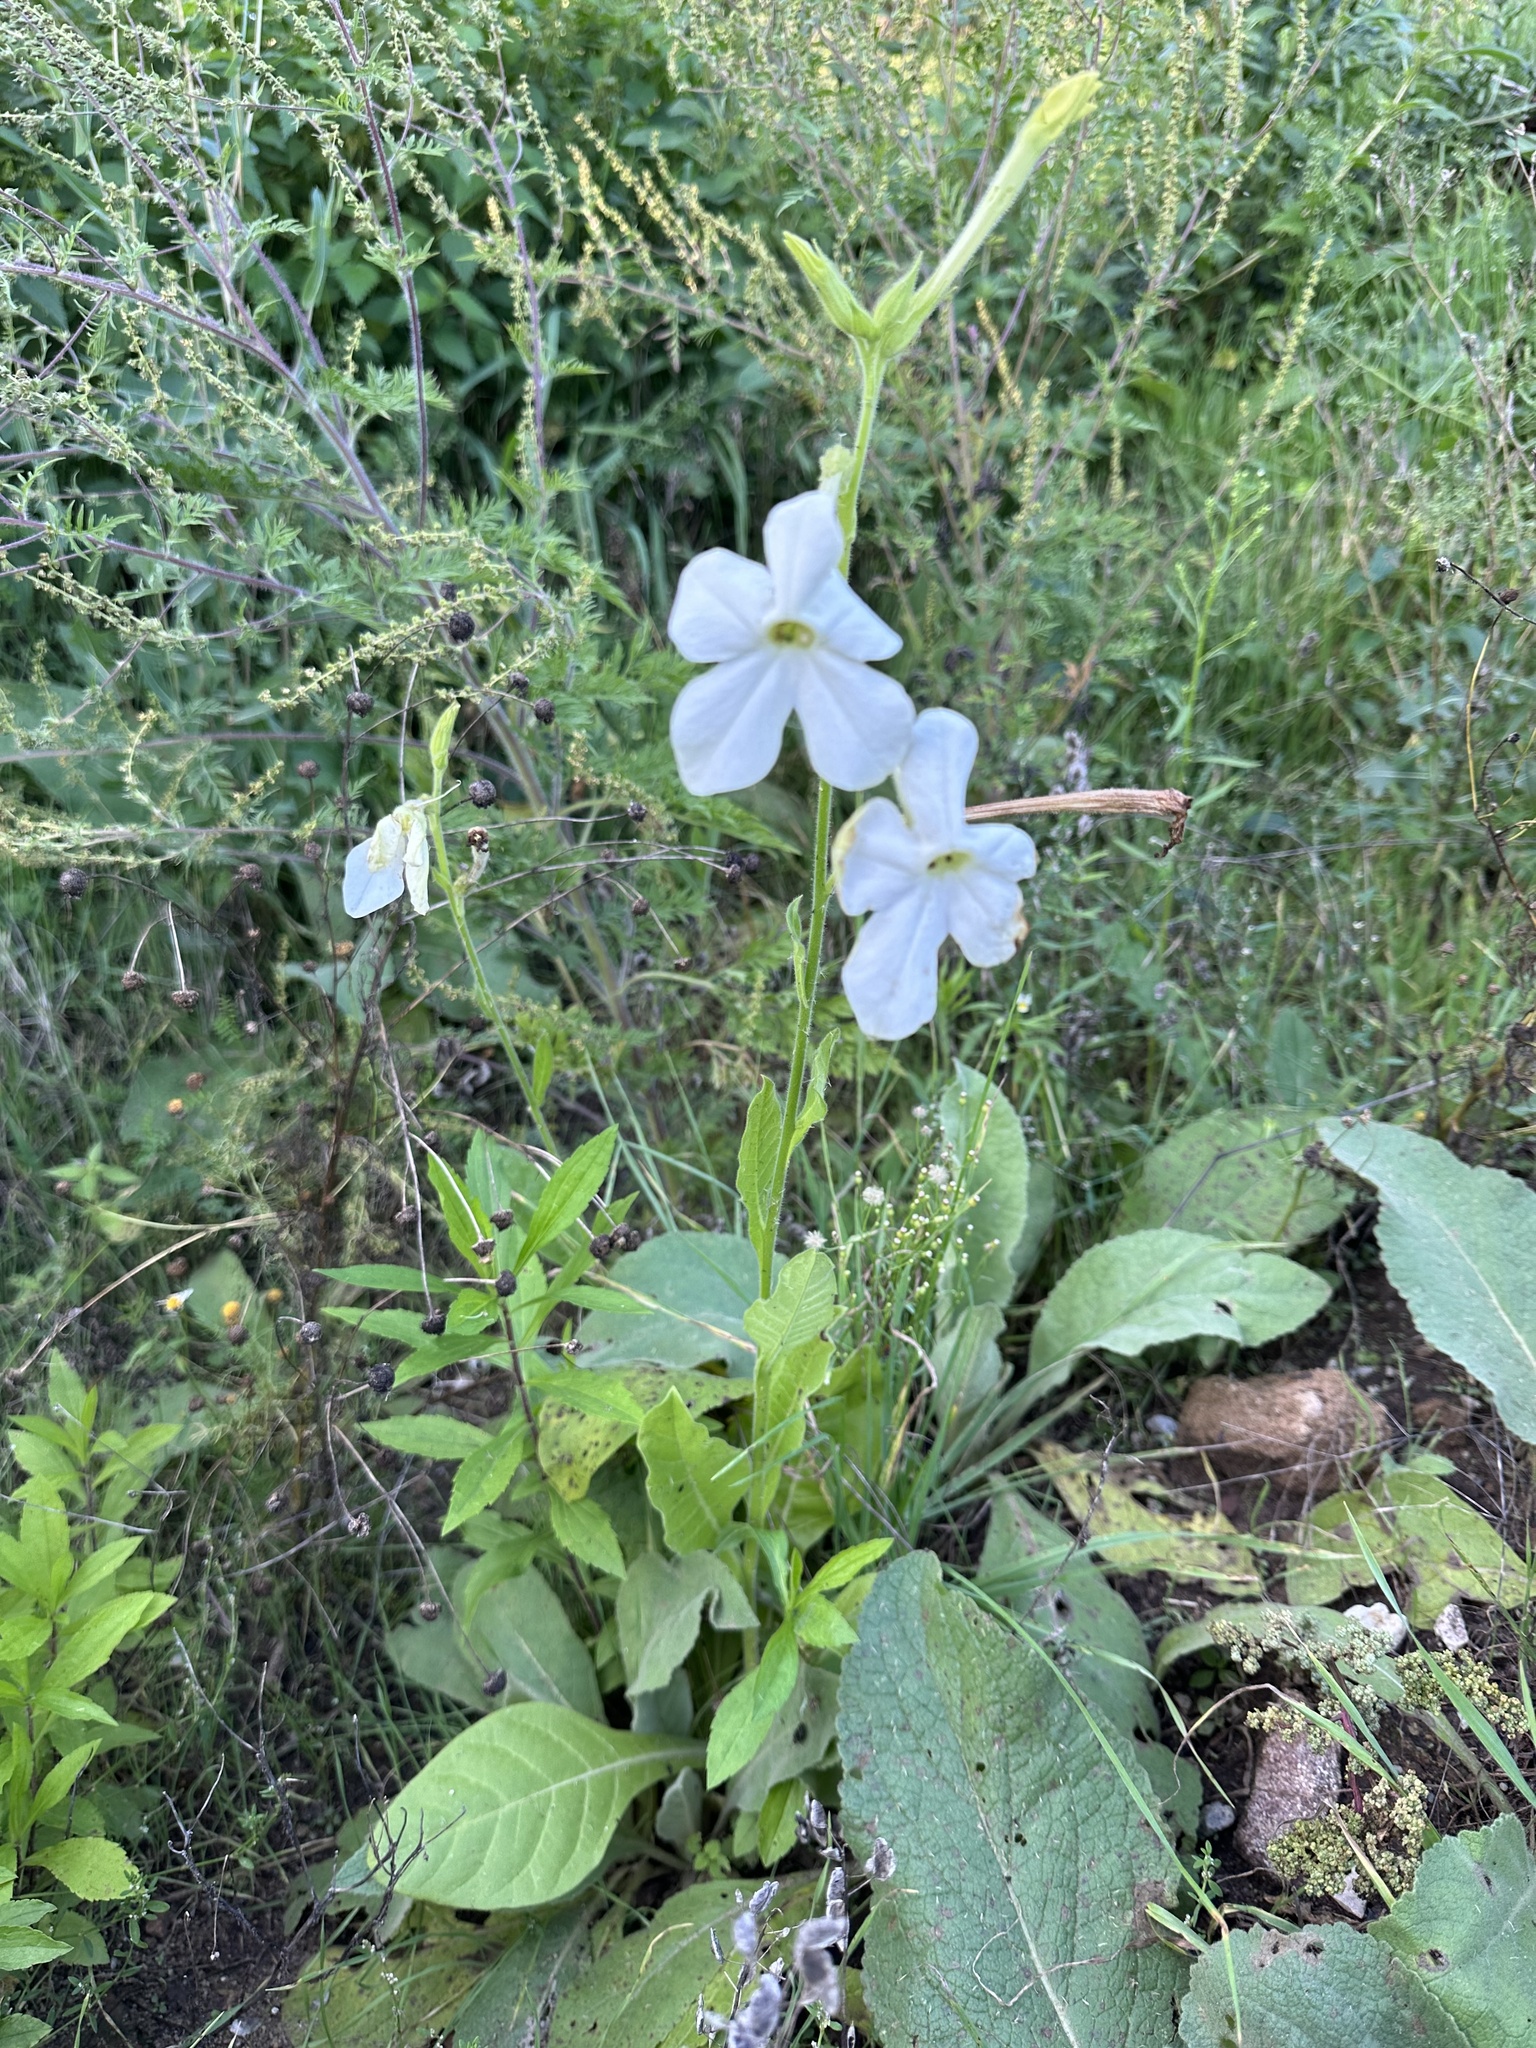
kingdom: Plantae
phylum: Tracheophyta
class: Magnoliopsida
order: Solanales
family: Solanaceae
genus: Nicotiana
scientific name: Nicotiana alata
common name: Jasmine tobacco
